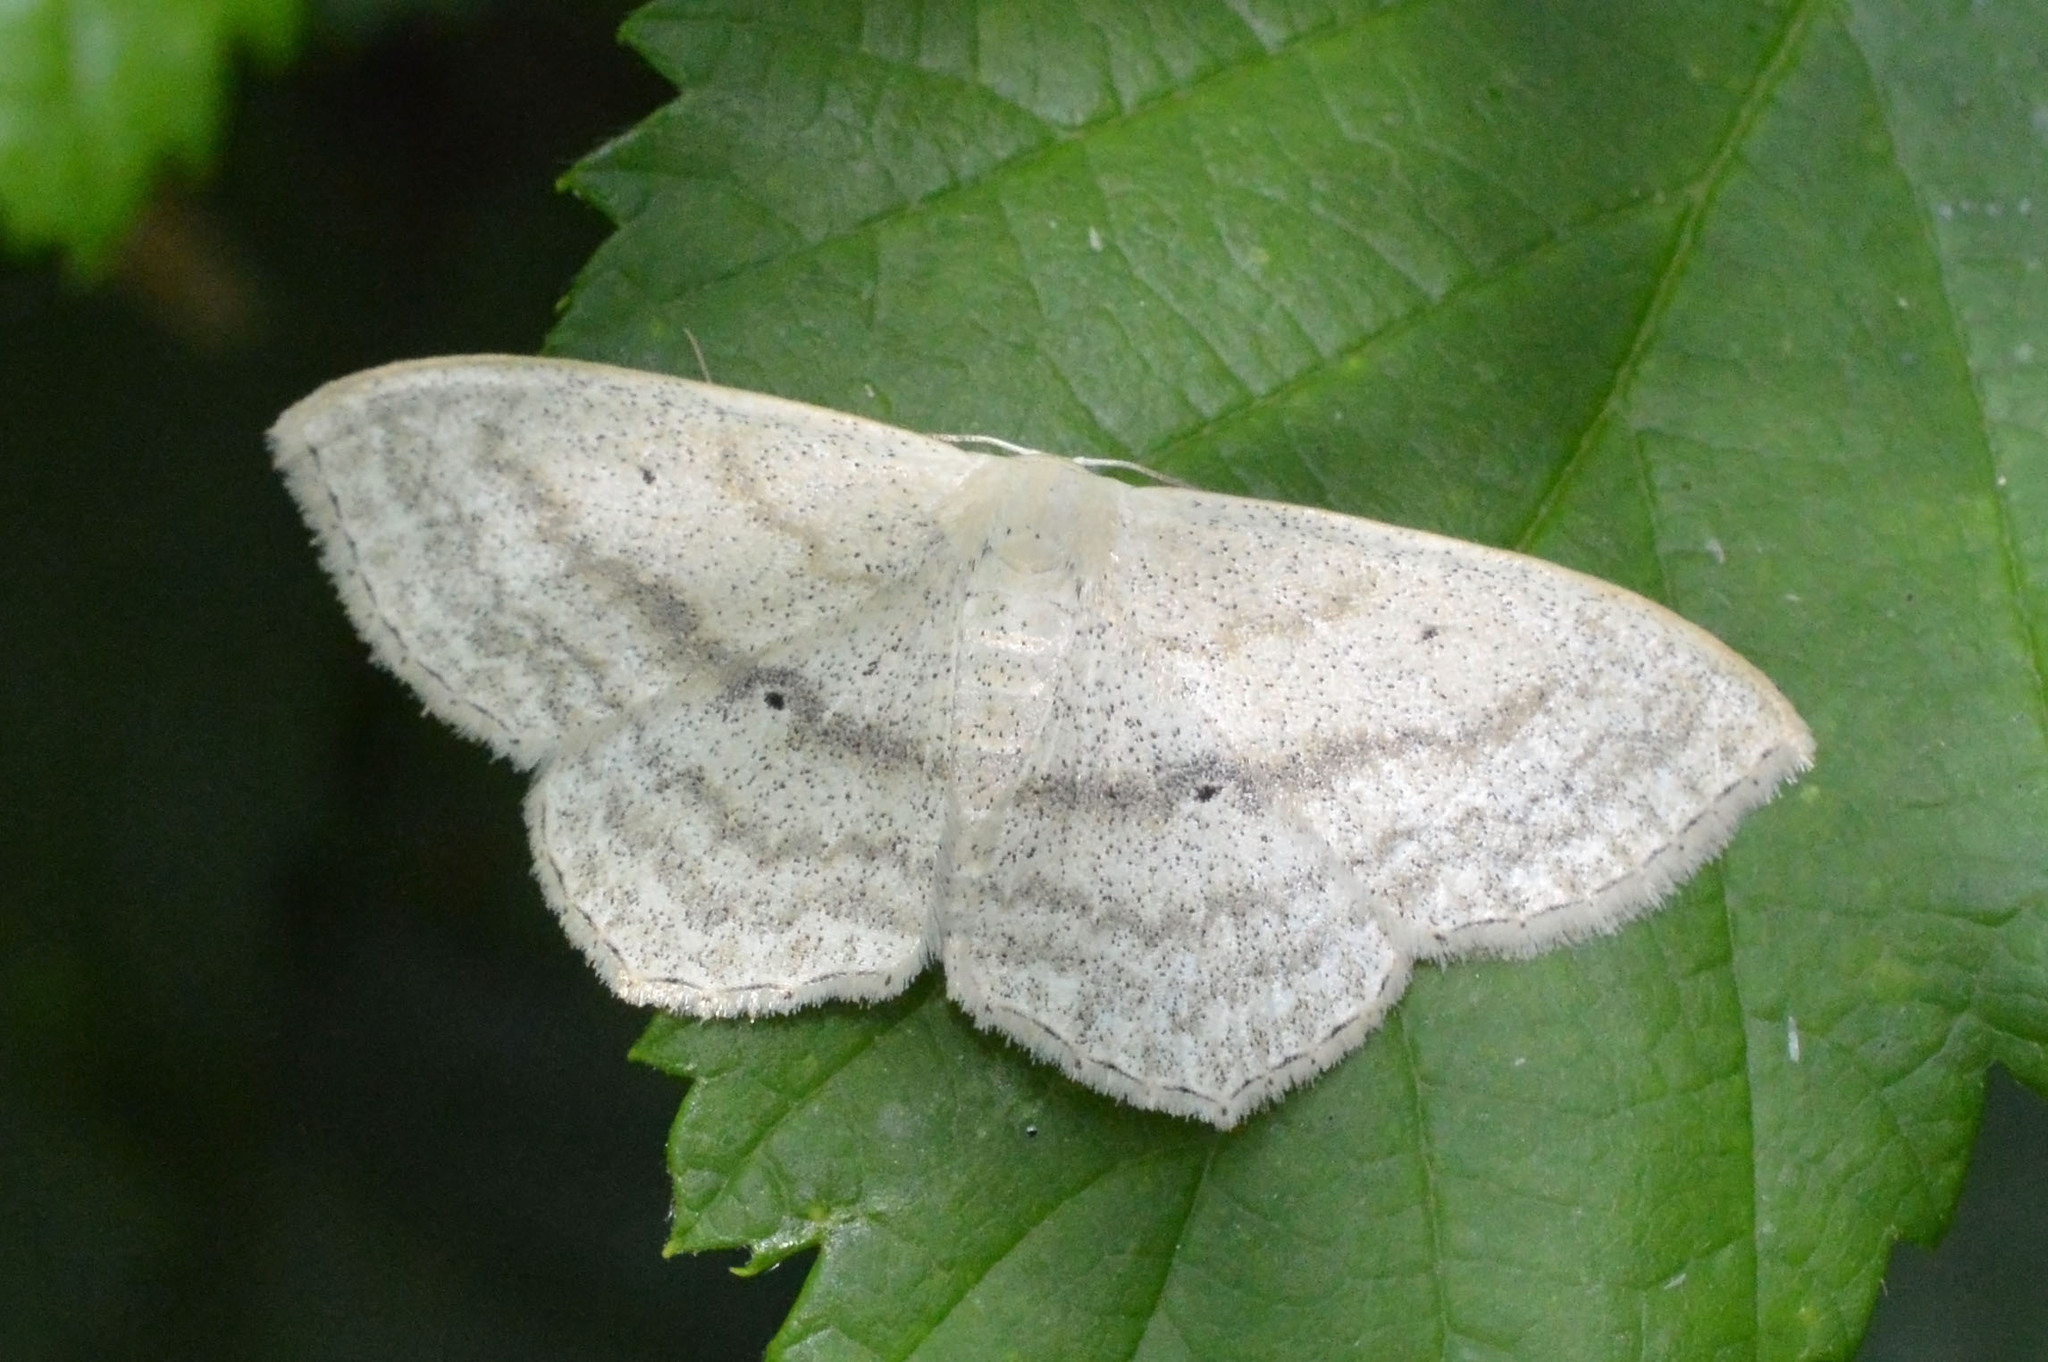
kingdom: Animalia
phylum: Arthropoda
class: Insecta
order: Lepidoptera
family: Geometridae
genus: Scopula
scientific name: Scopula nigropunctata
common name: Sub-angled wave
